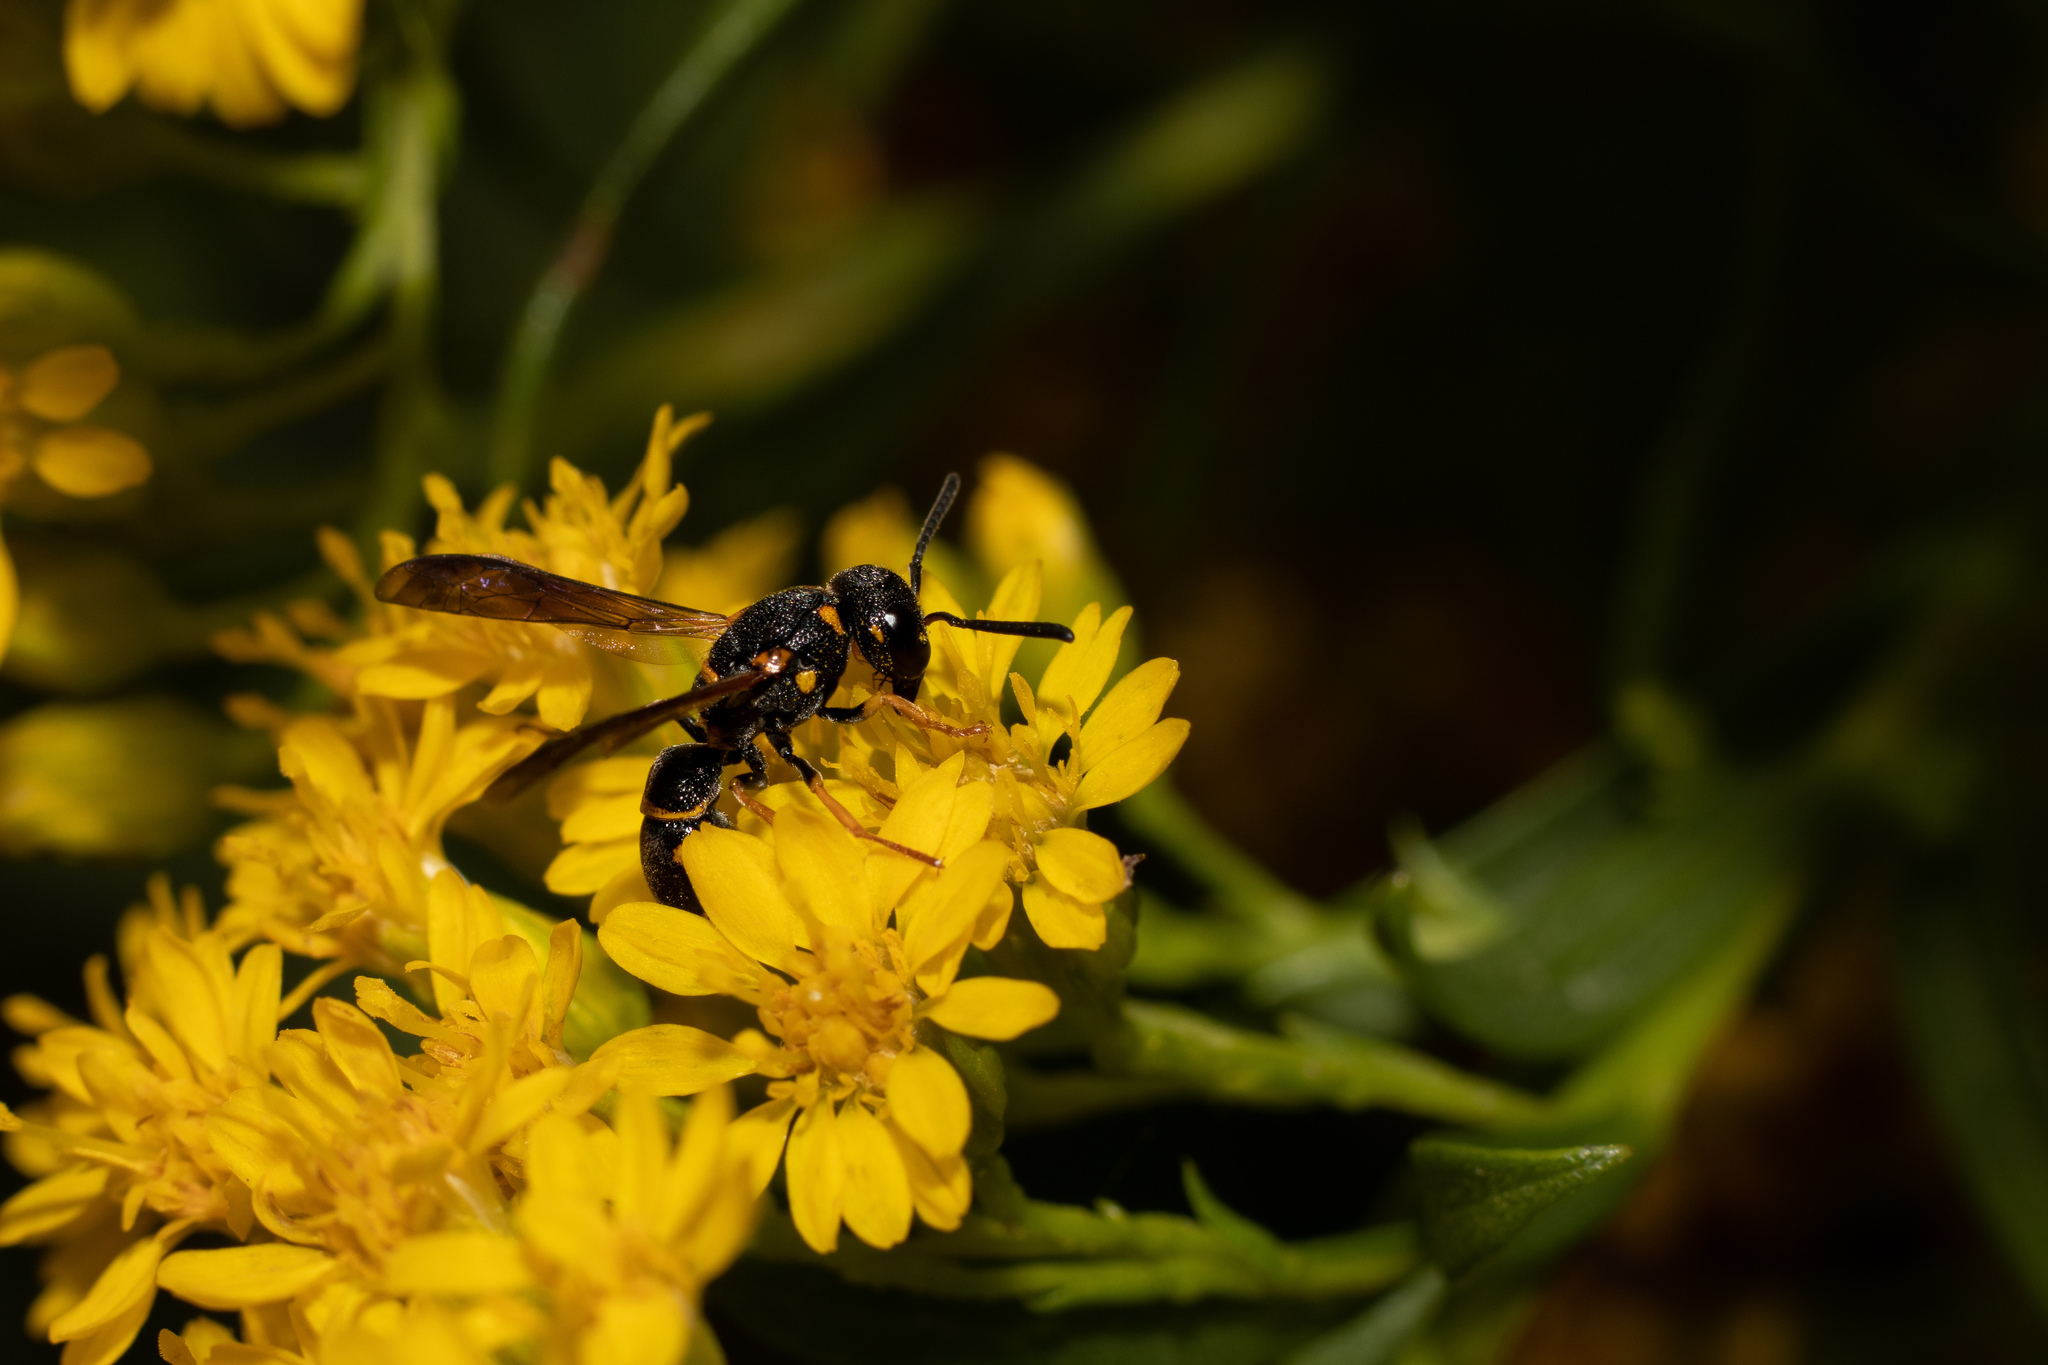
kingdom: Animalia
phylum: Arthropoda
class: Insecta
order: Hymenoptera
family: Eumenidae
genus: Stenodynerus
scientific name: Stenodynerus
